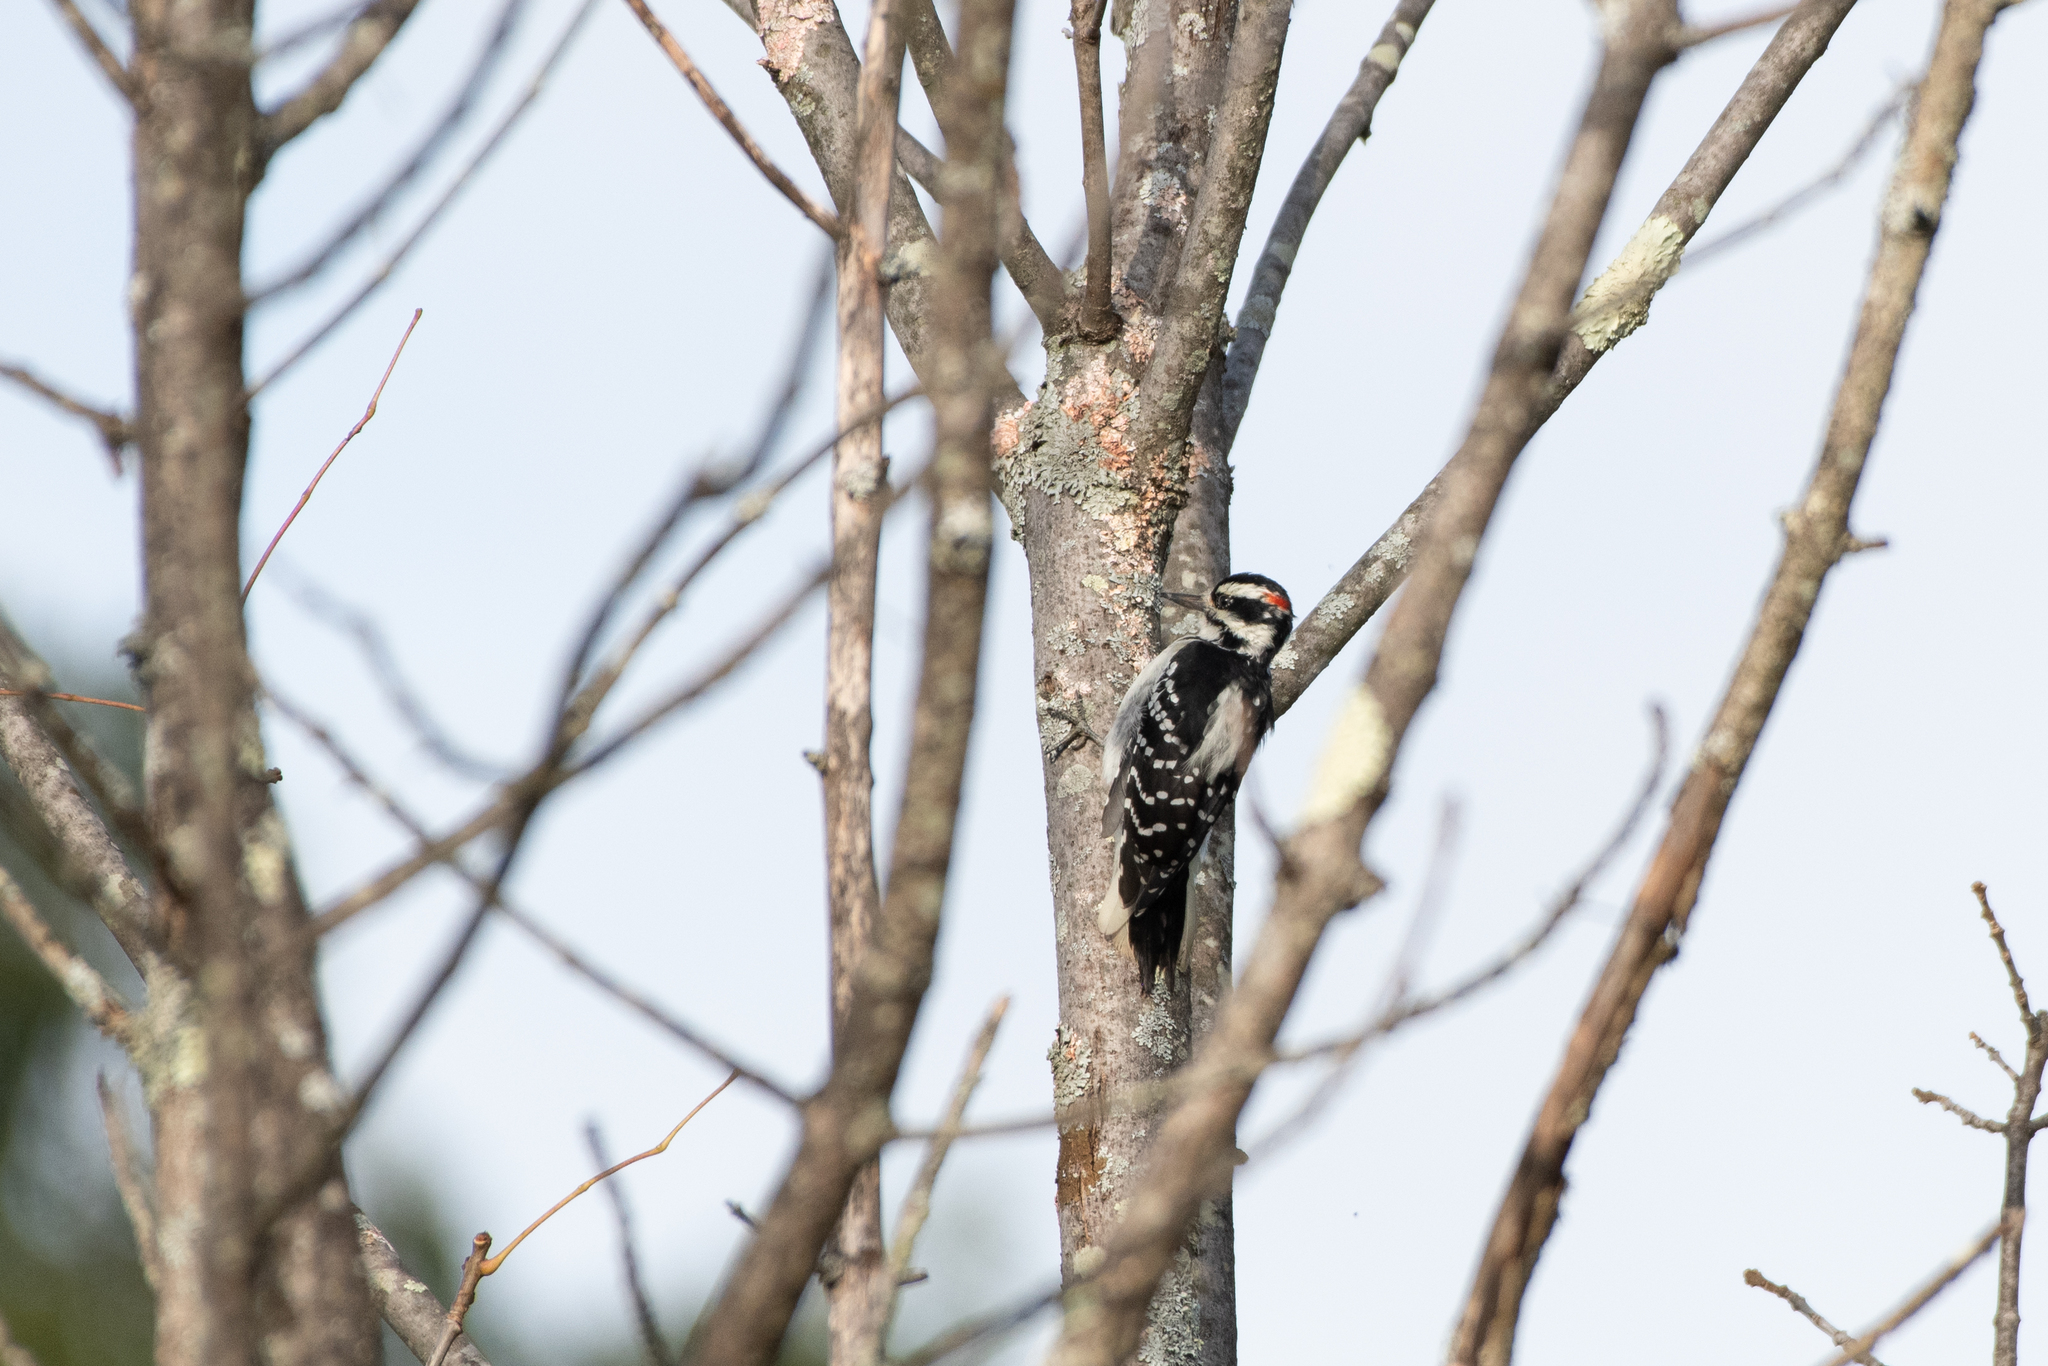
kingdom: Animalia
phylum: Chordata
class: Aves
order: Piciformes
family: Picidae
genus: Leuconotopicus
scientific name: Leuconotopicus villosus
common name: Hairy woodpecker
